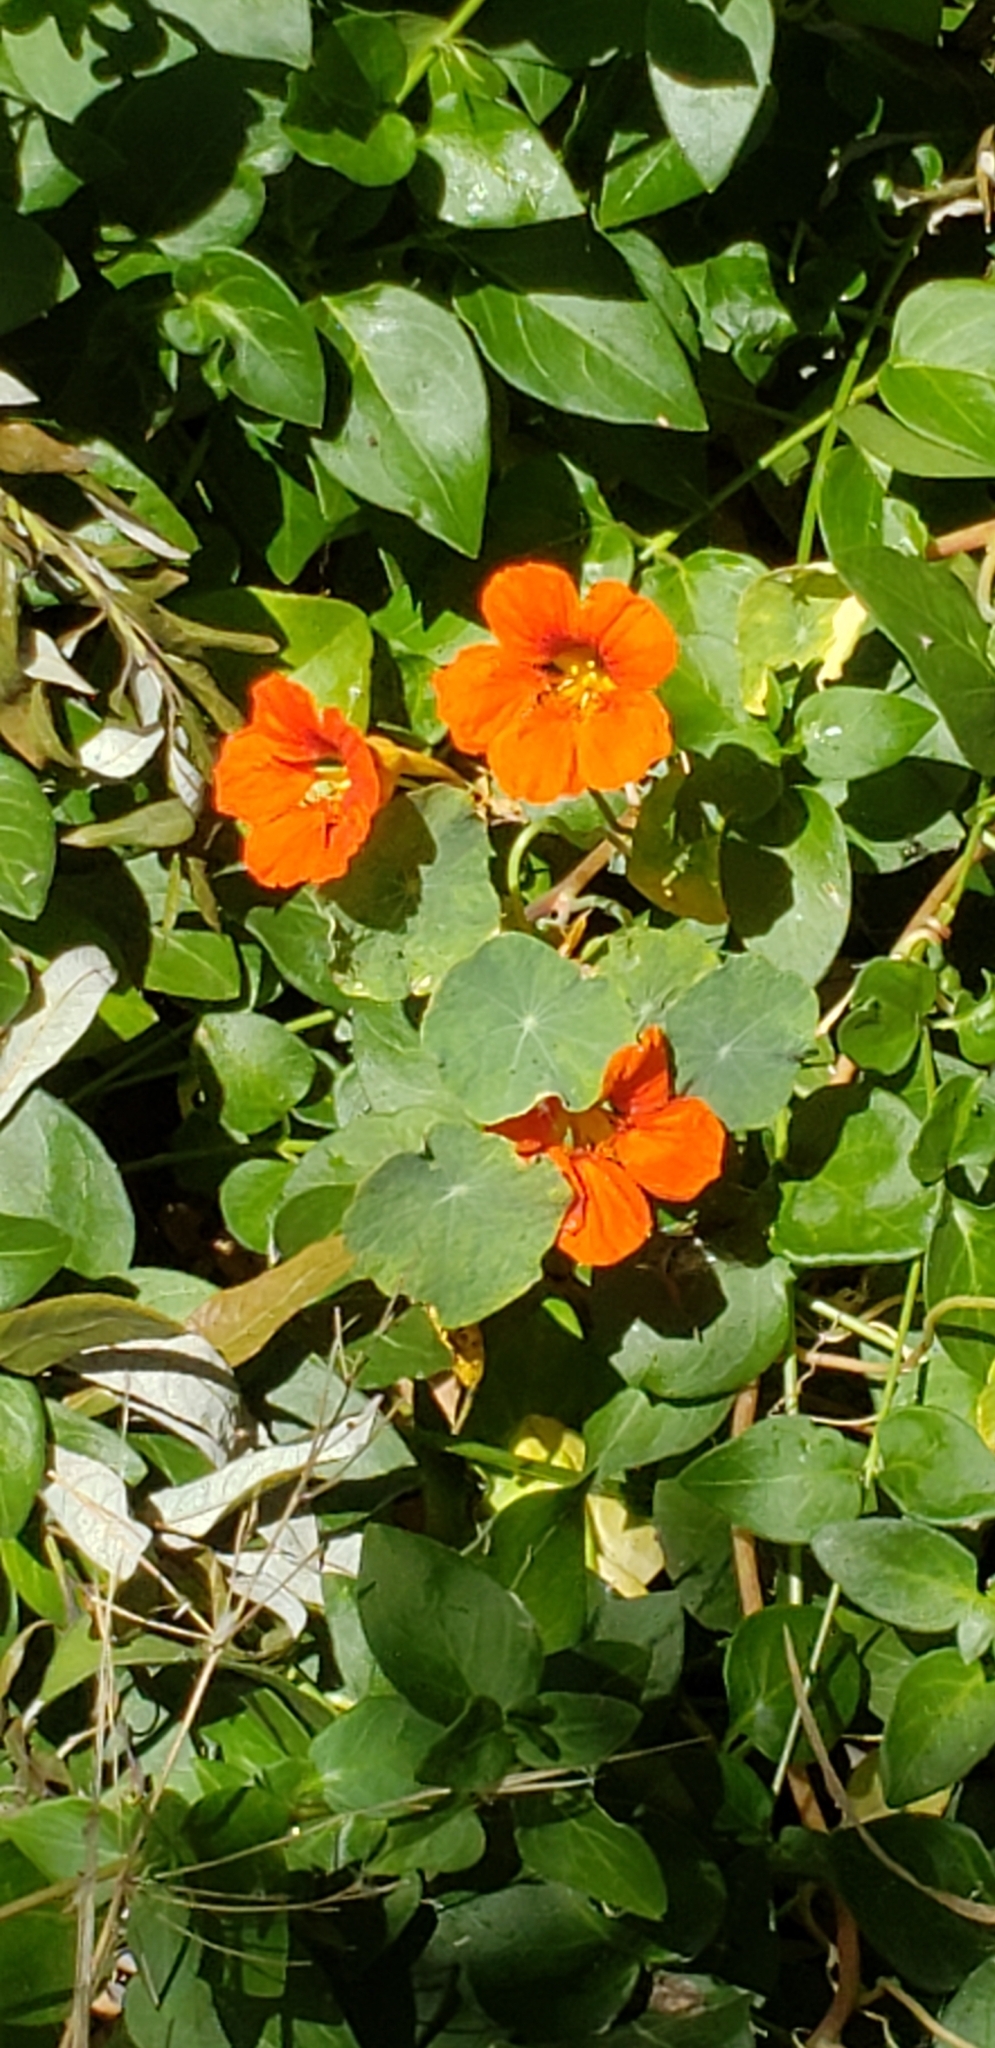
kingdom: Plantae
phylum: Tracheophyta
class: Magnoliopsida
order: Brassicales
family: Tropaeolaceae
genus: Tropaeolum
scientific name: Tropaeolum majus
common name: Nasturtium
